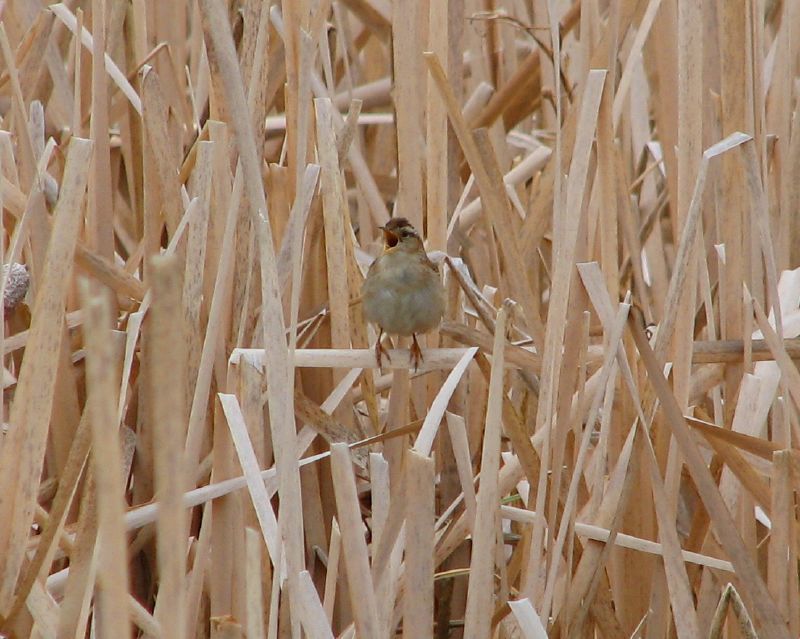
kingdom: Animalia
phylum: Chordata
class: Aves
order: Passeriformes
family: Troglodytidae
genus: Cistothorus
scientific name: Cistothorus palustris
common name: Marsh wren
